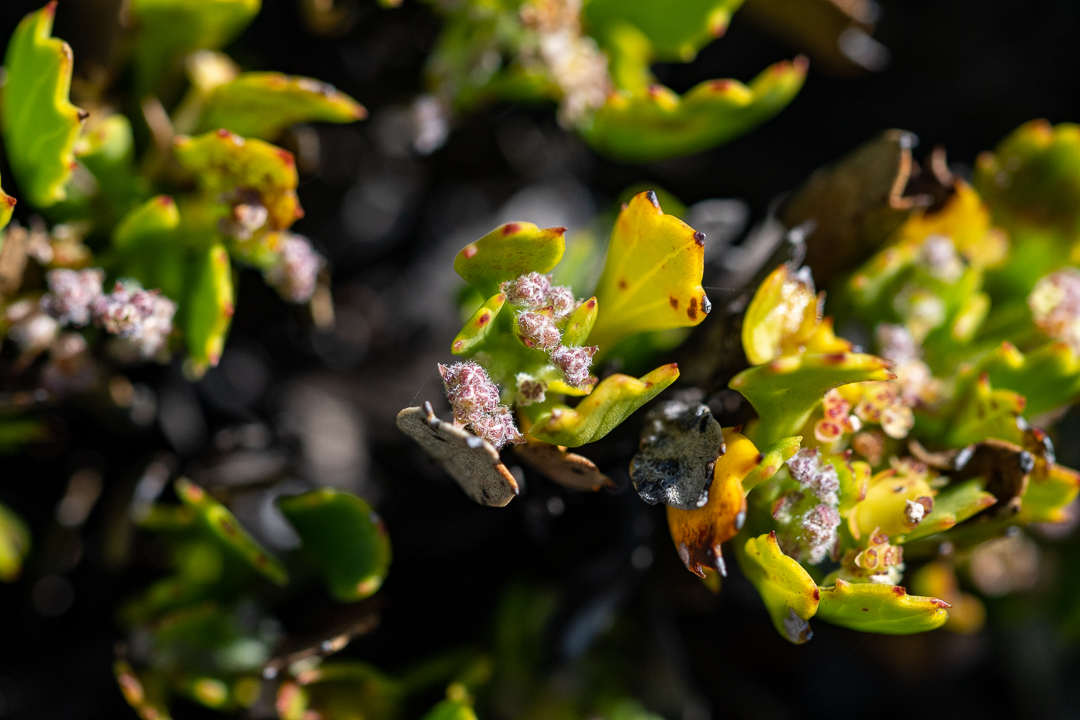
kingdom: Plantae
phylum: Tracheophyta
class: Magnoliopsida
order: Apiales
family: Apiaceae
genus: Centella
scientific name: Centella triloba
